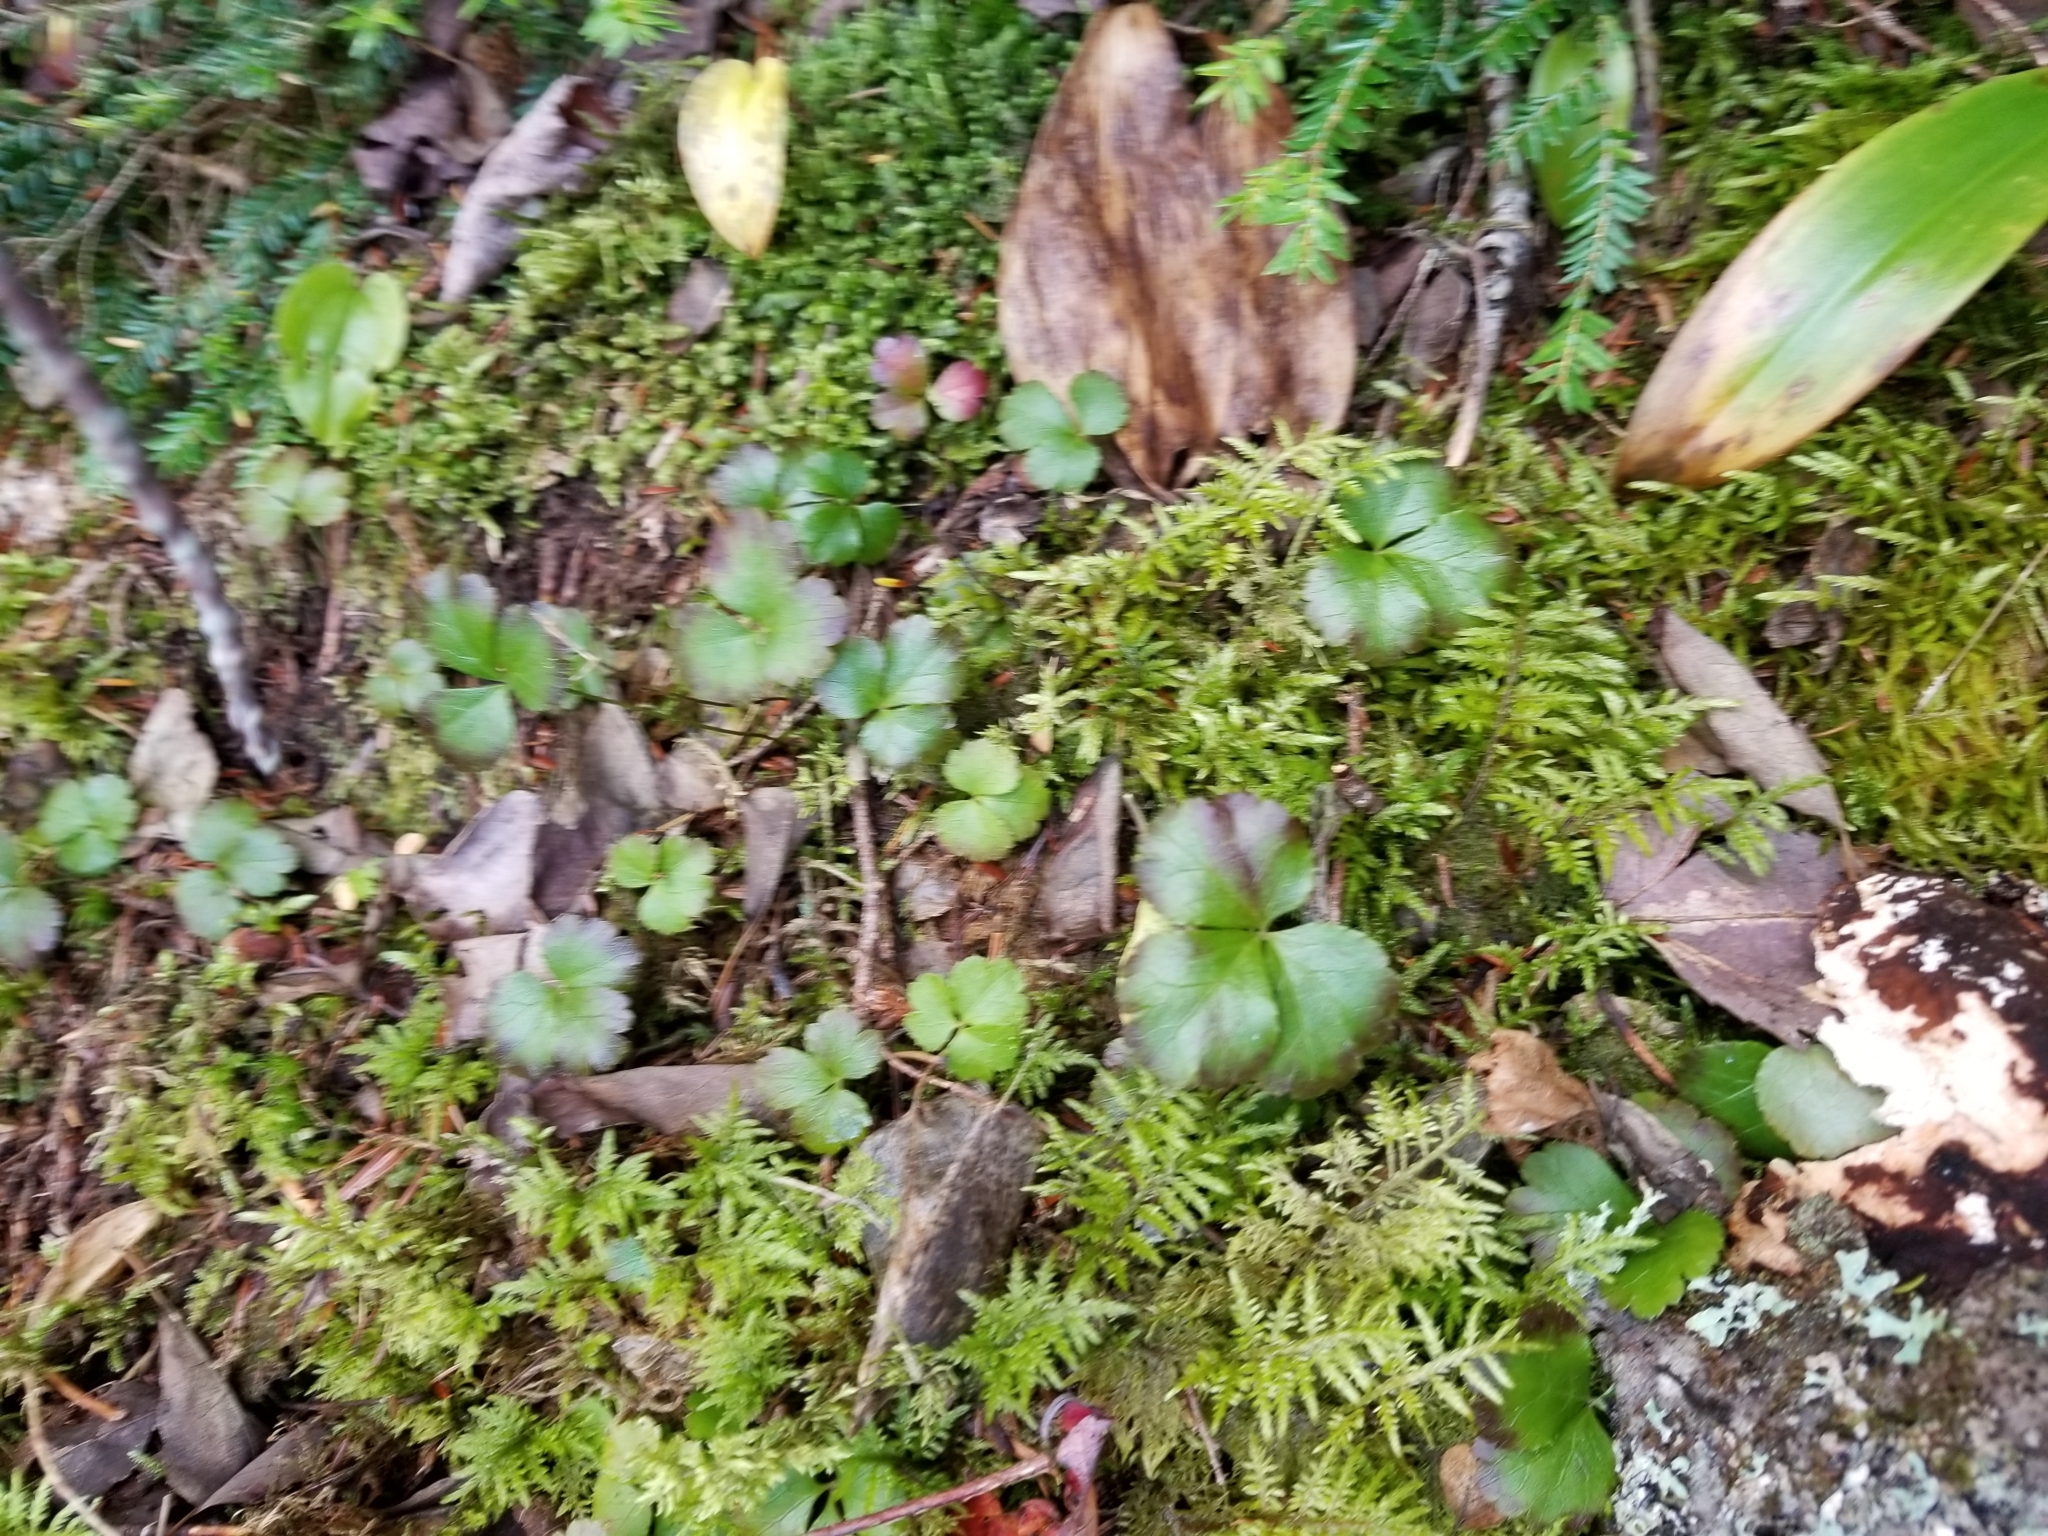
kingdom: Plantae
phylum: Tracheophyta
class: Magnoliopsida
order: Ranunculales
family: Ranunculaceae
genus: Coptis
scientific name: Coptis trifolia
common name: Canker-root
